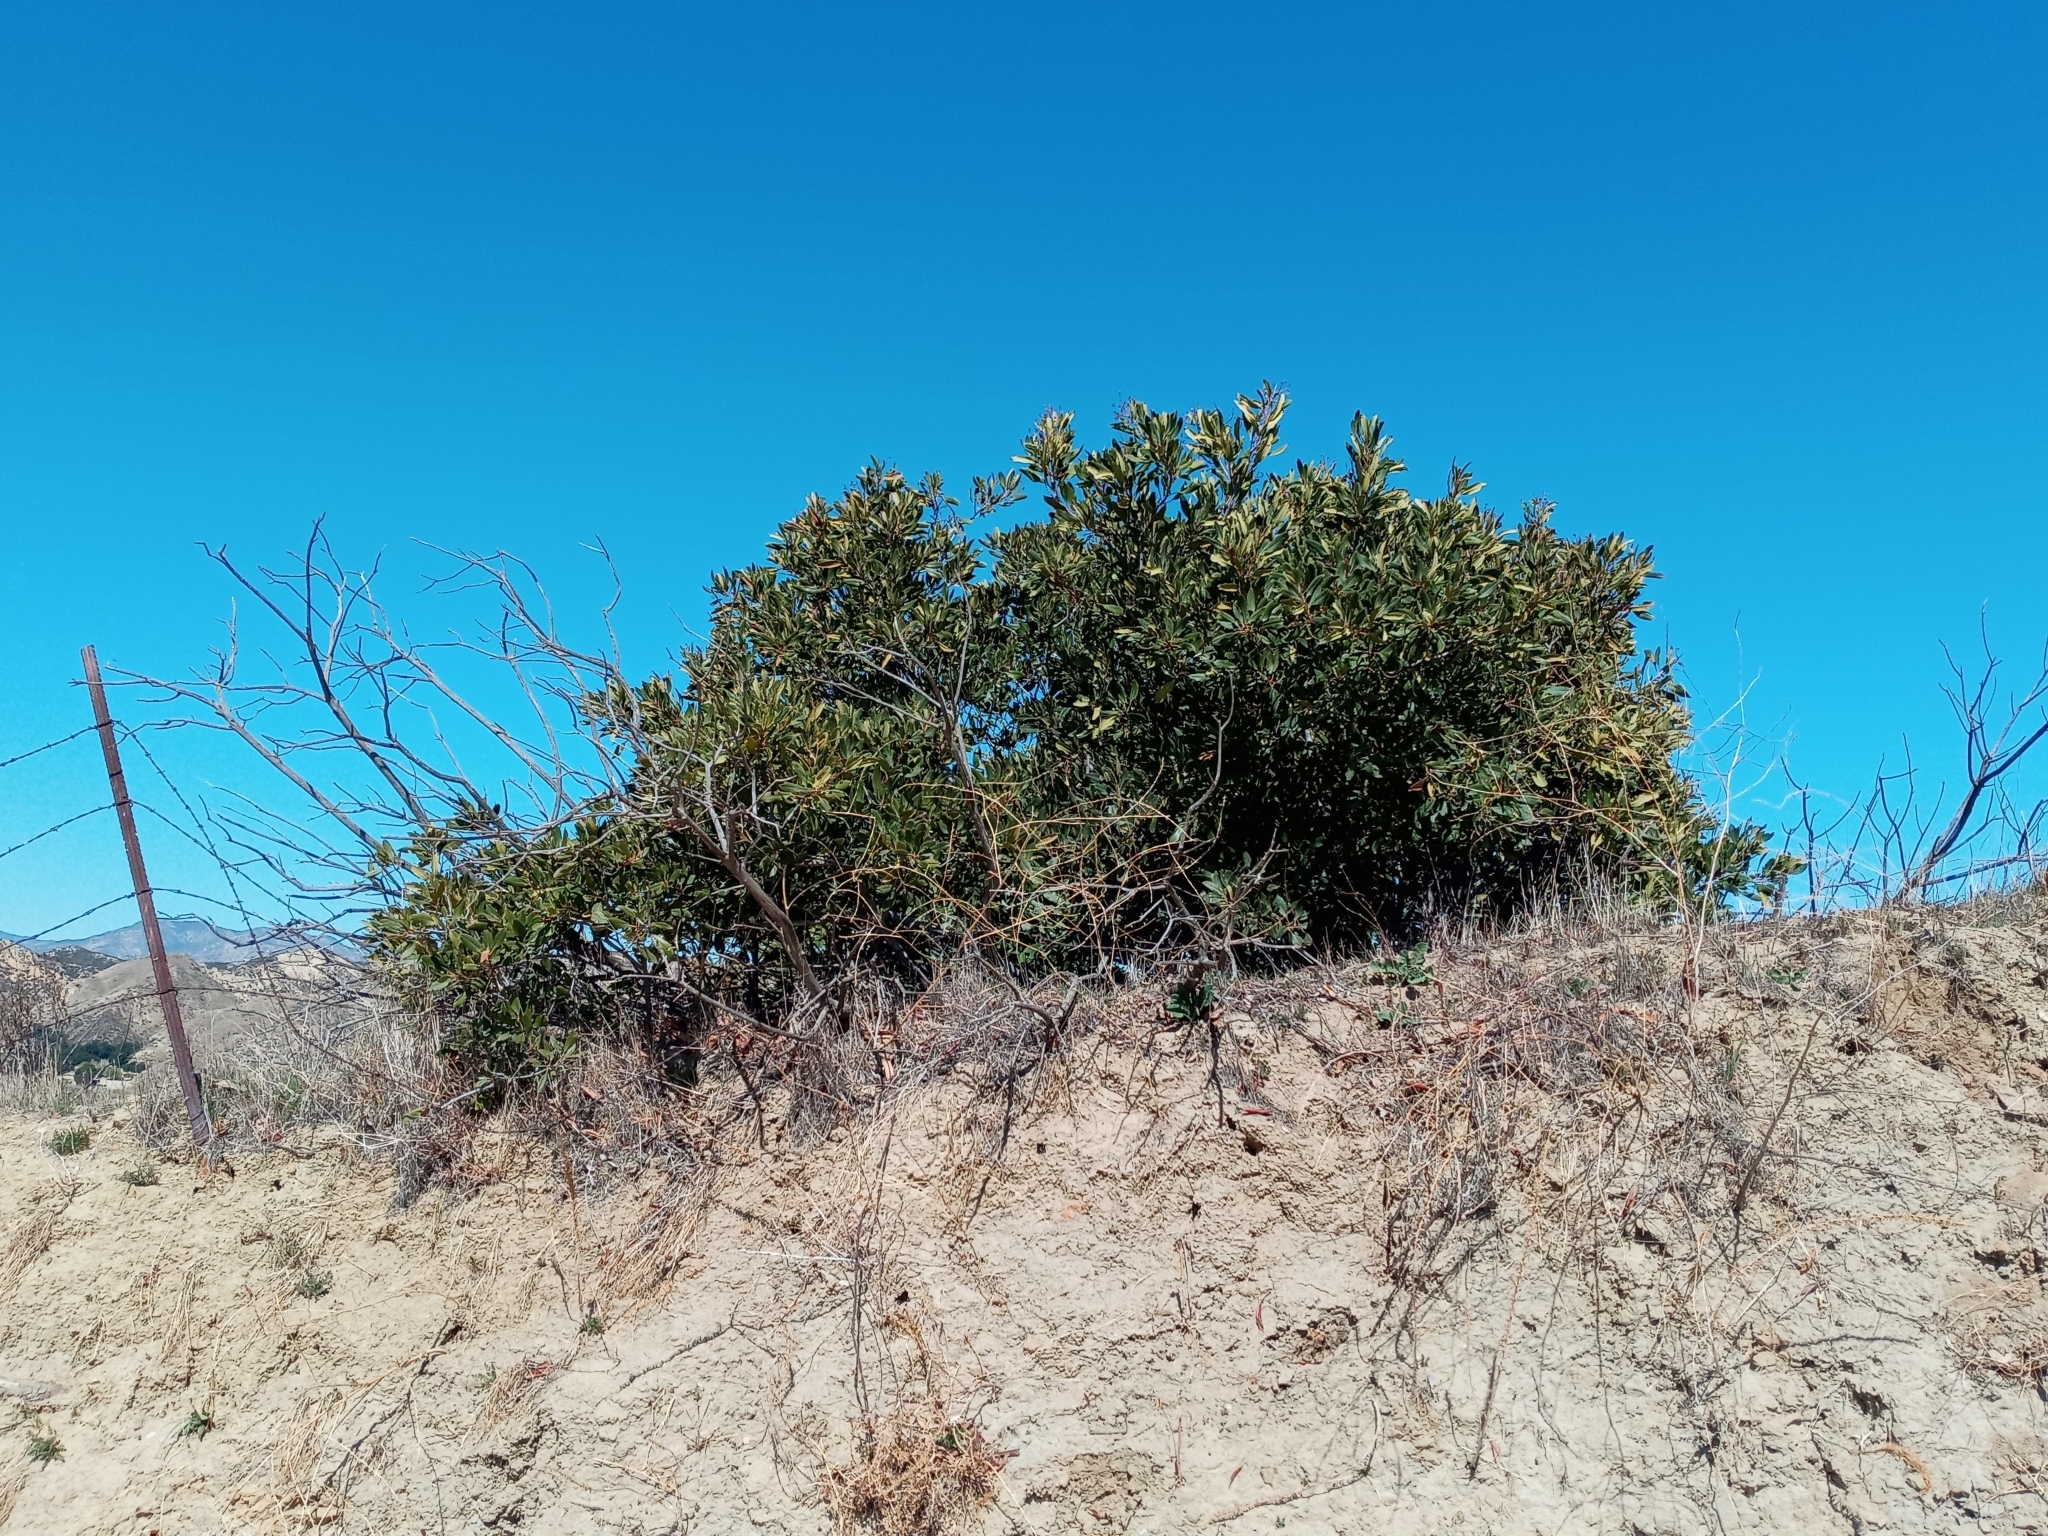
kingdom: Plantae
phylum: Tracheophyta
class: Magnoliopsida
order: Rosales
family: Rosaceae
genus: Heteromeles
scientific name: Heteromeles arbutifolia
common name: California-holly
